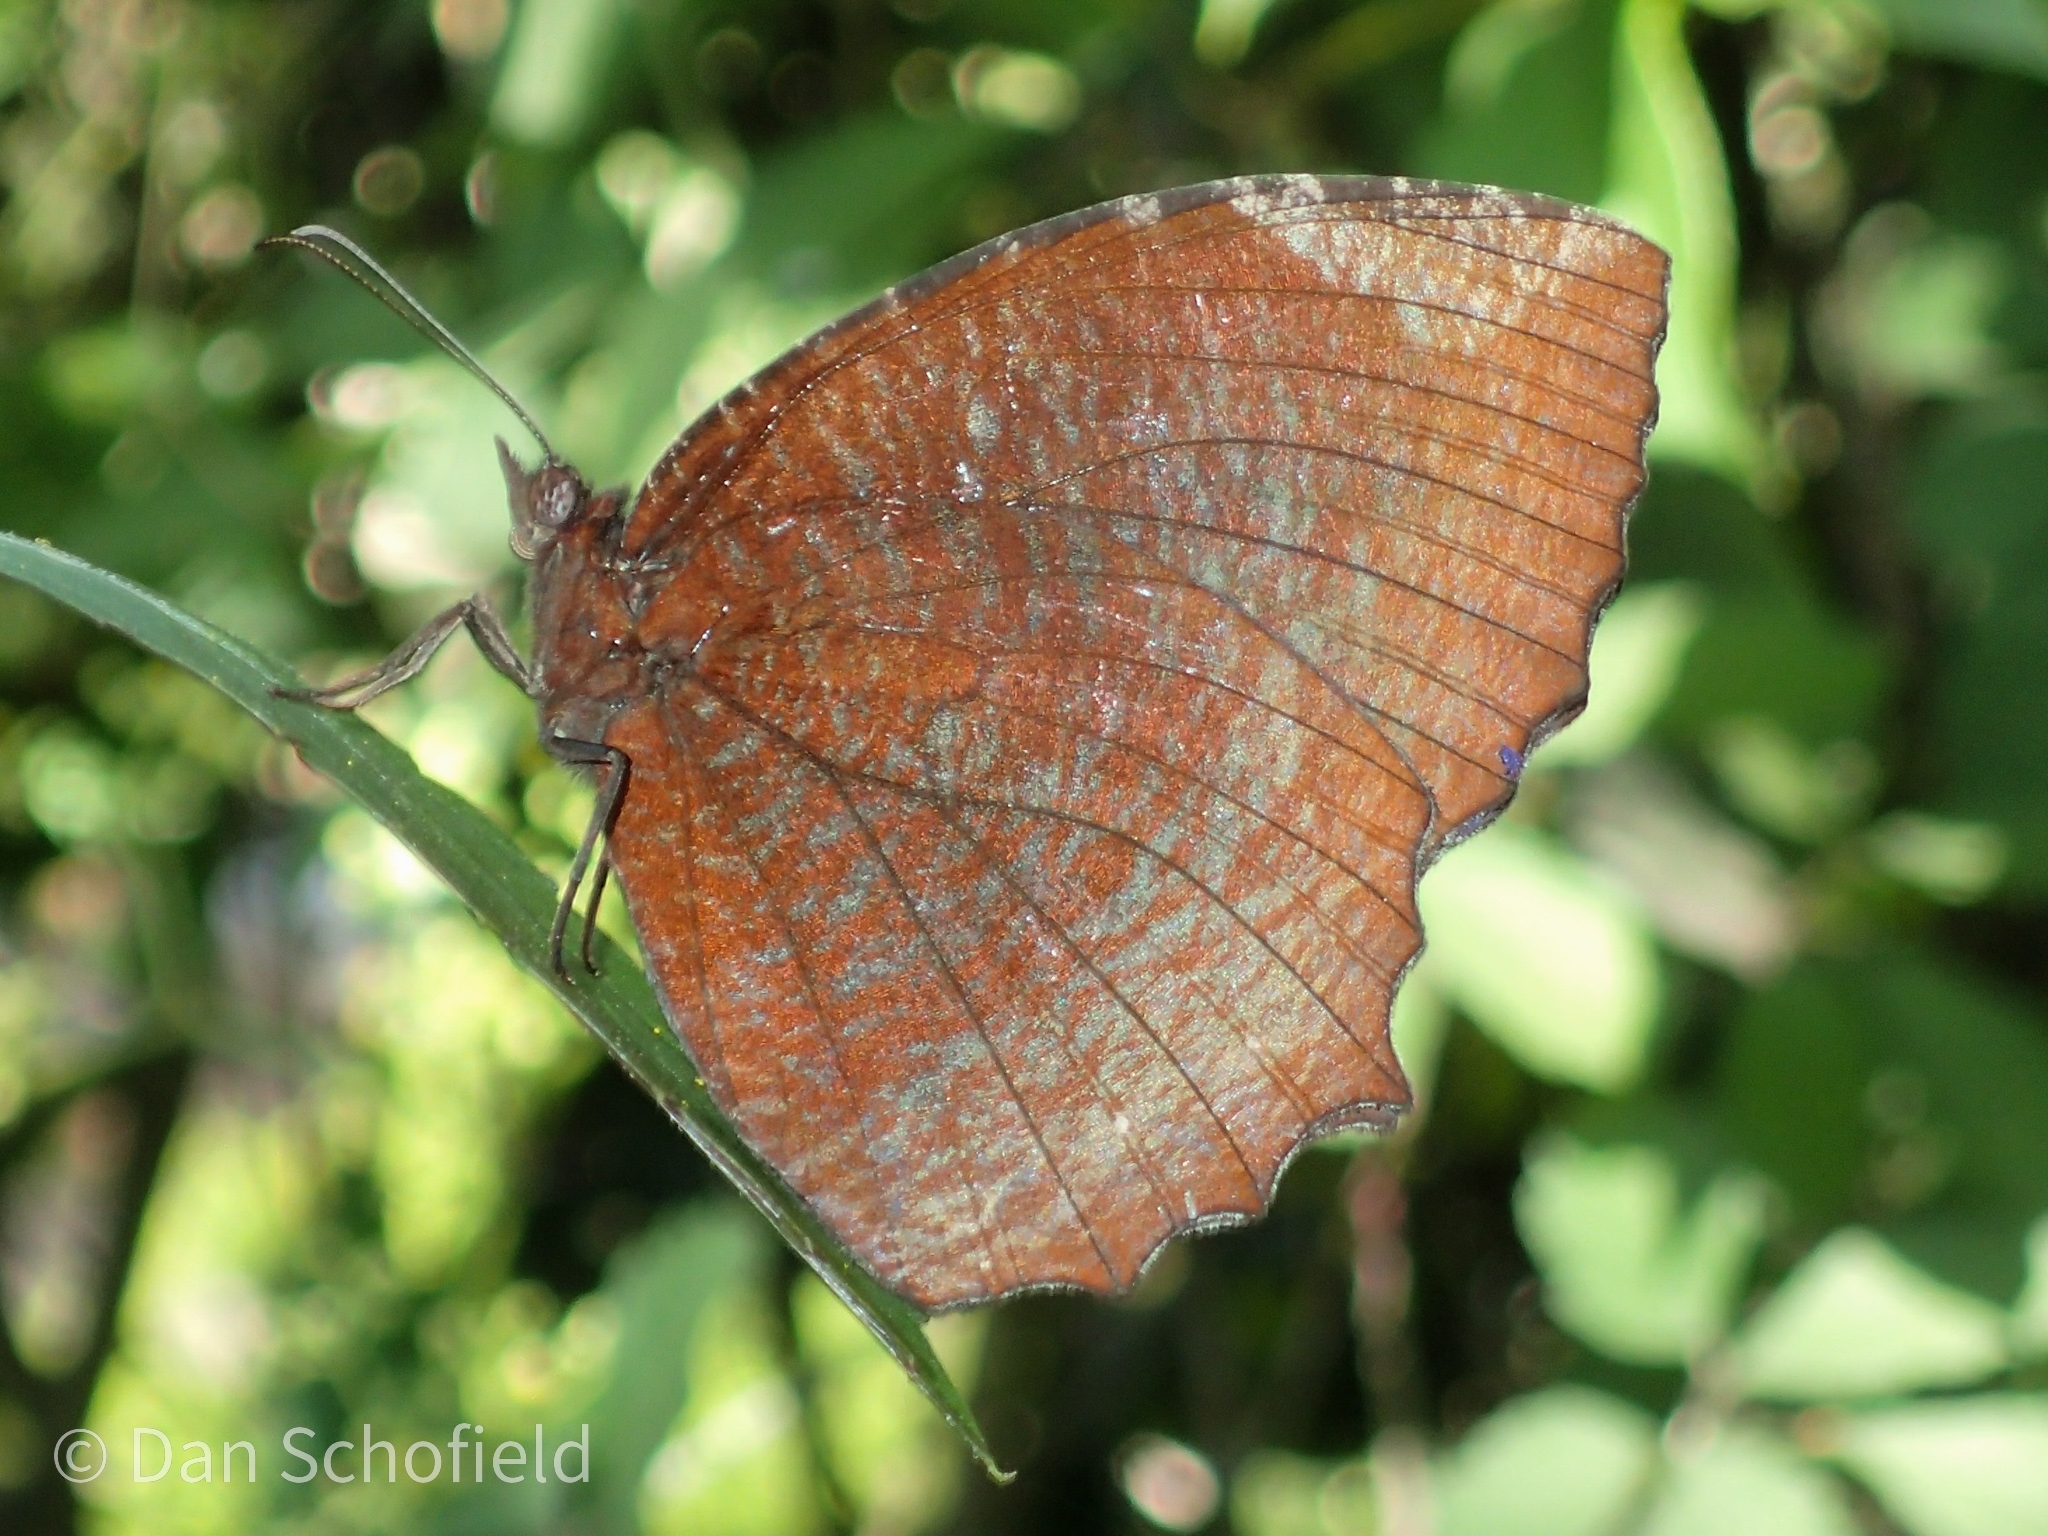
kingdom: Animalia
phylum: Arthropoda
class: Insecta
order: Lepidoptera
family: Nymphalidae
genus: Elymnias
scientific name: Elymnias hypermnestra
